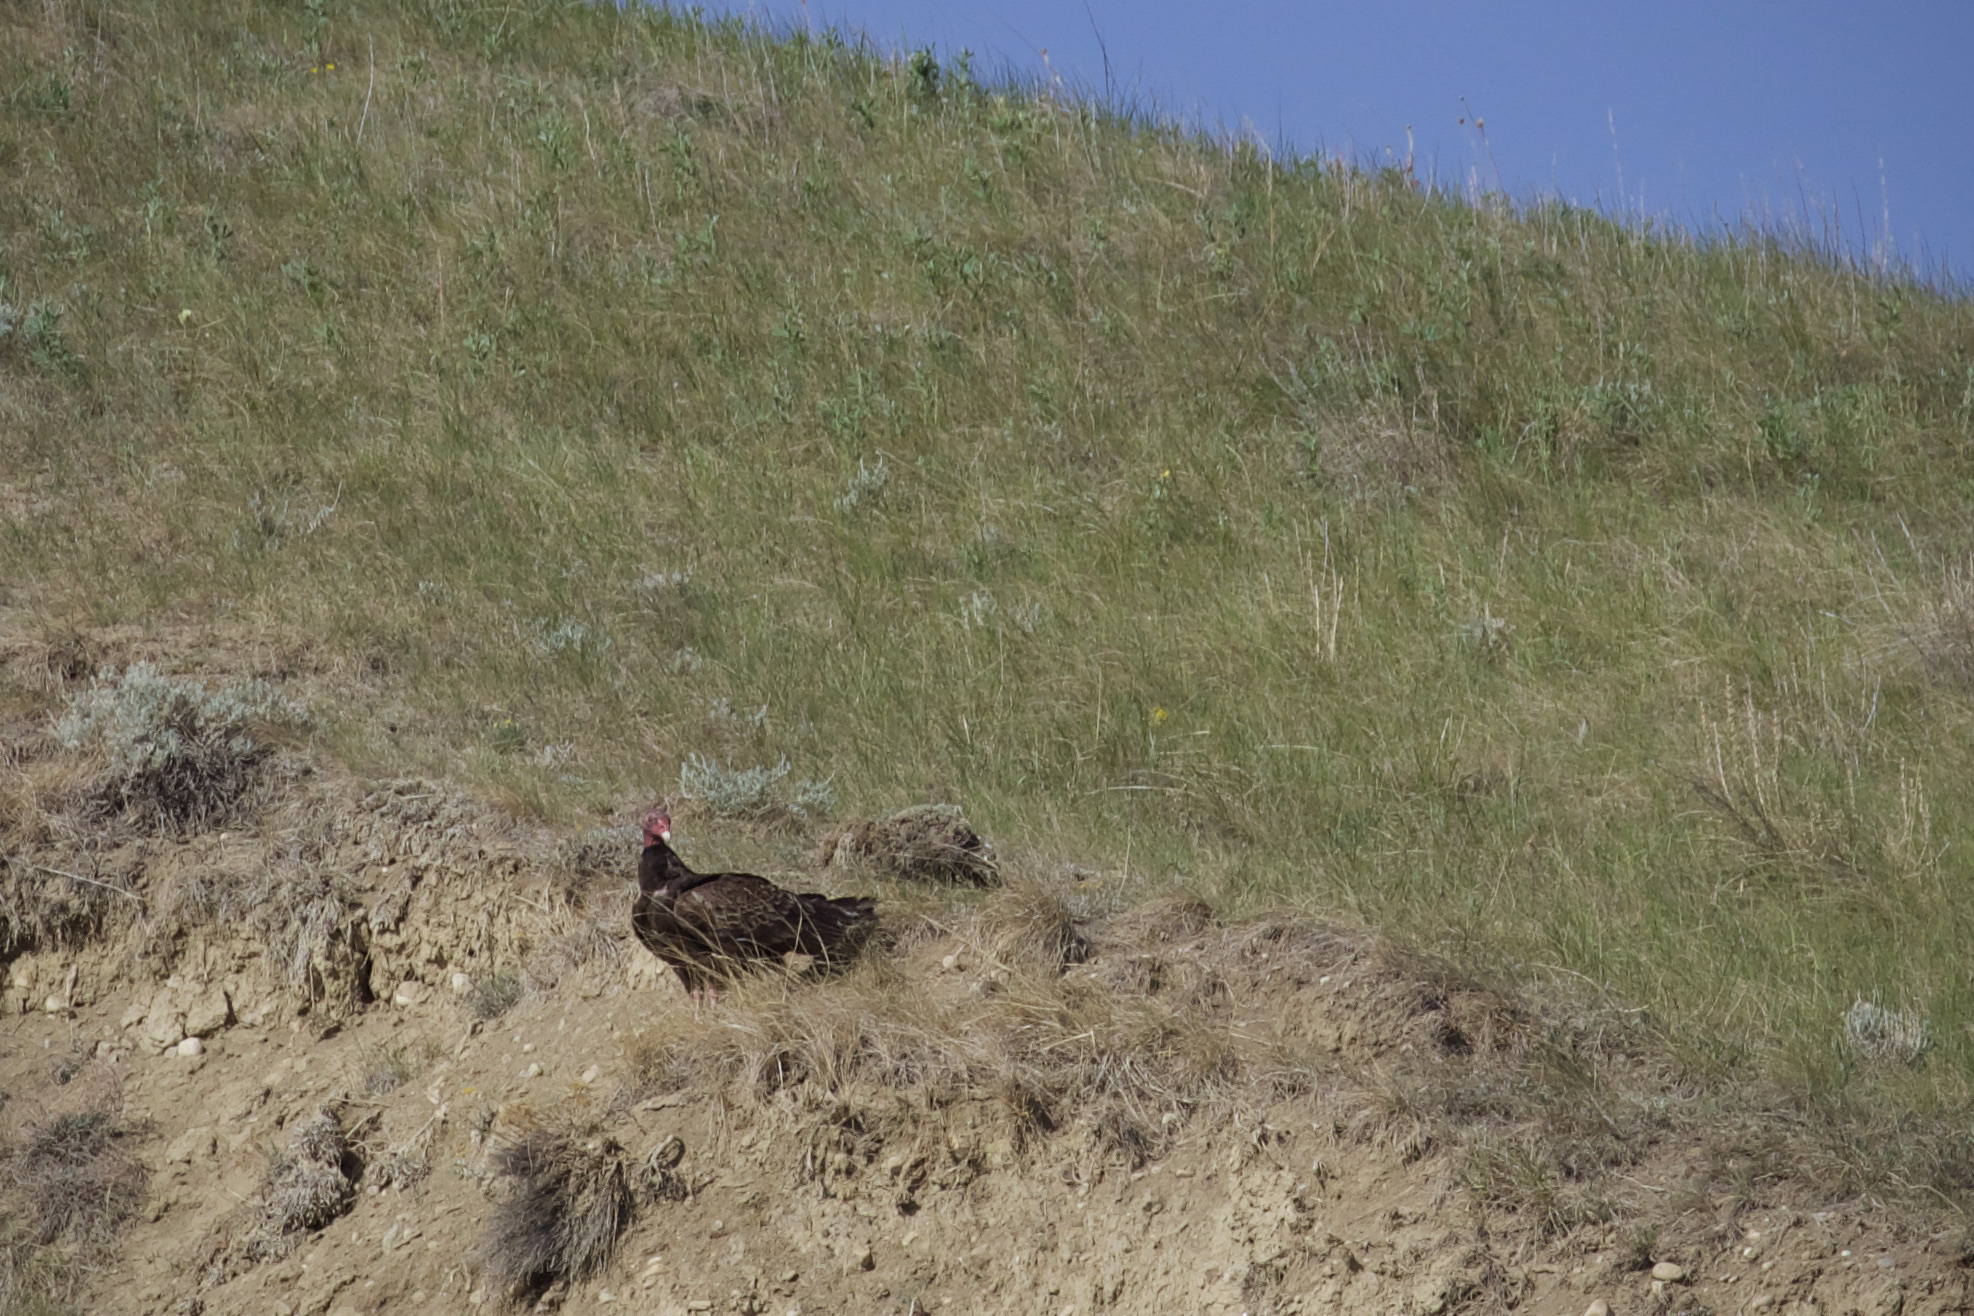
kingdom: Animalia
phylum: Chordata
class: Aves
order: Accipitriformes
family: Cathartidae
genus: Cathartes
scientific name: Cathartes aura
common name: Turkey vulture
